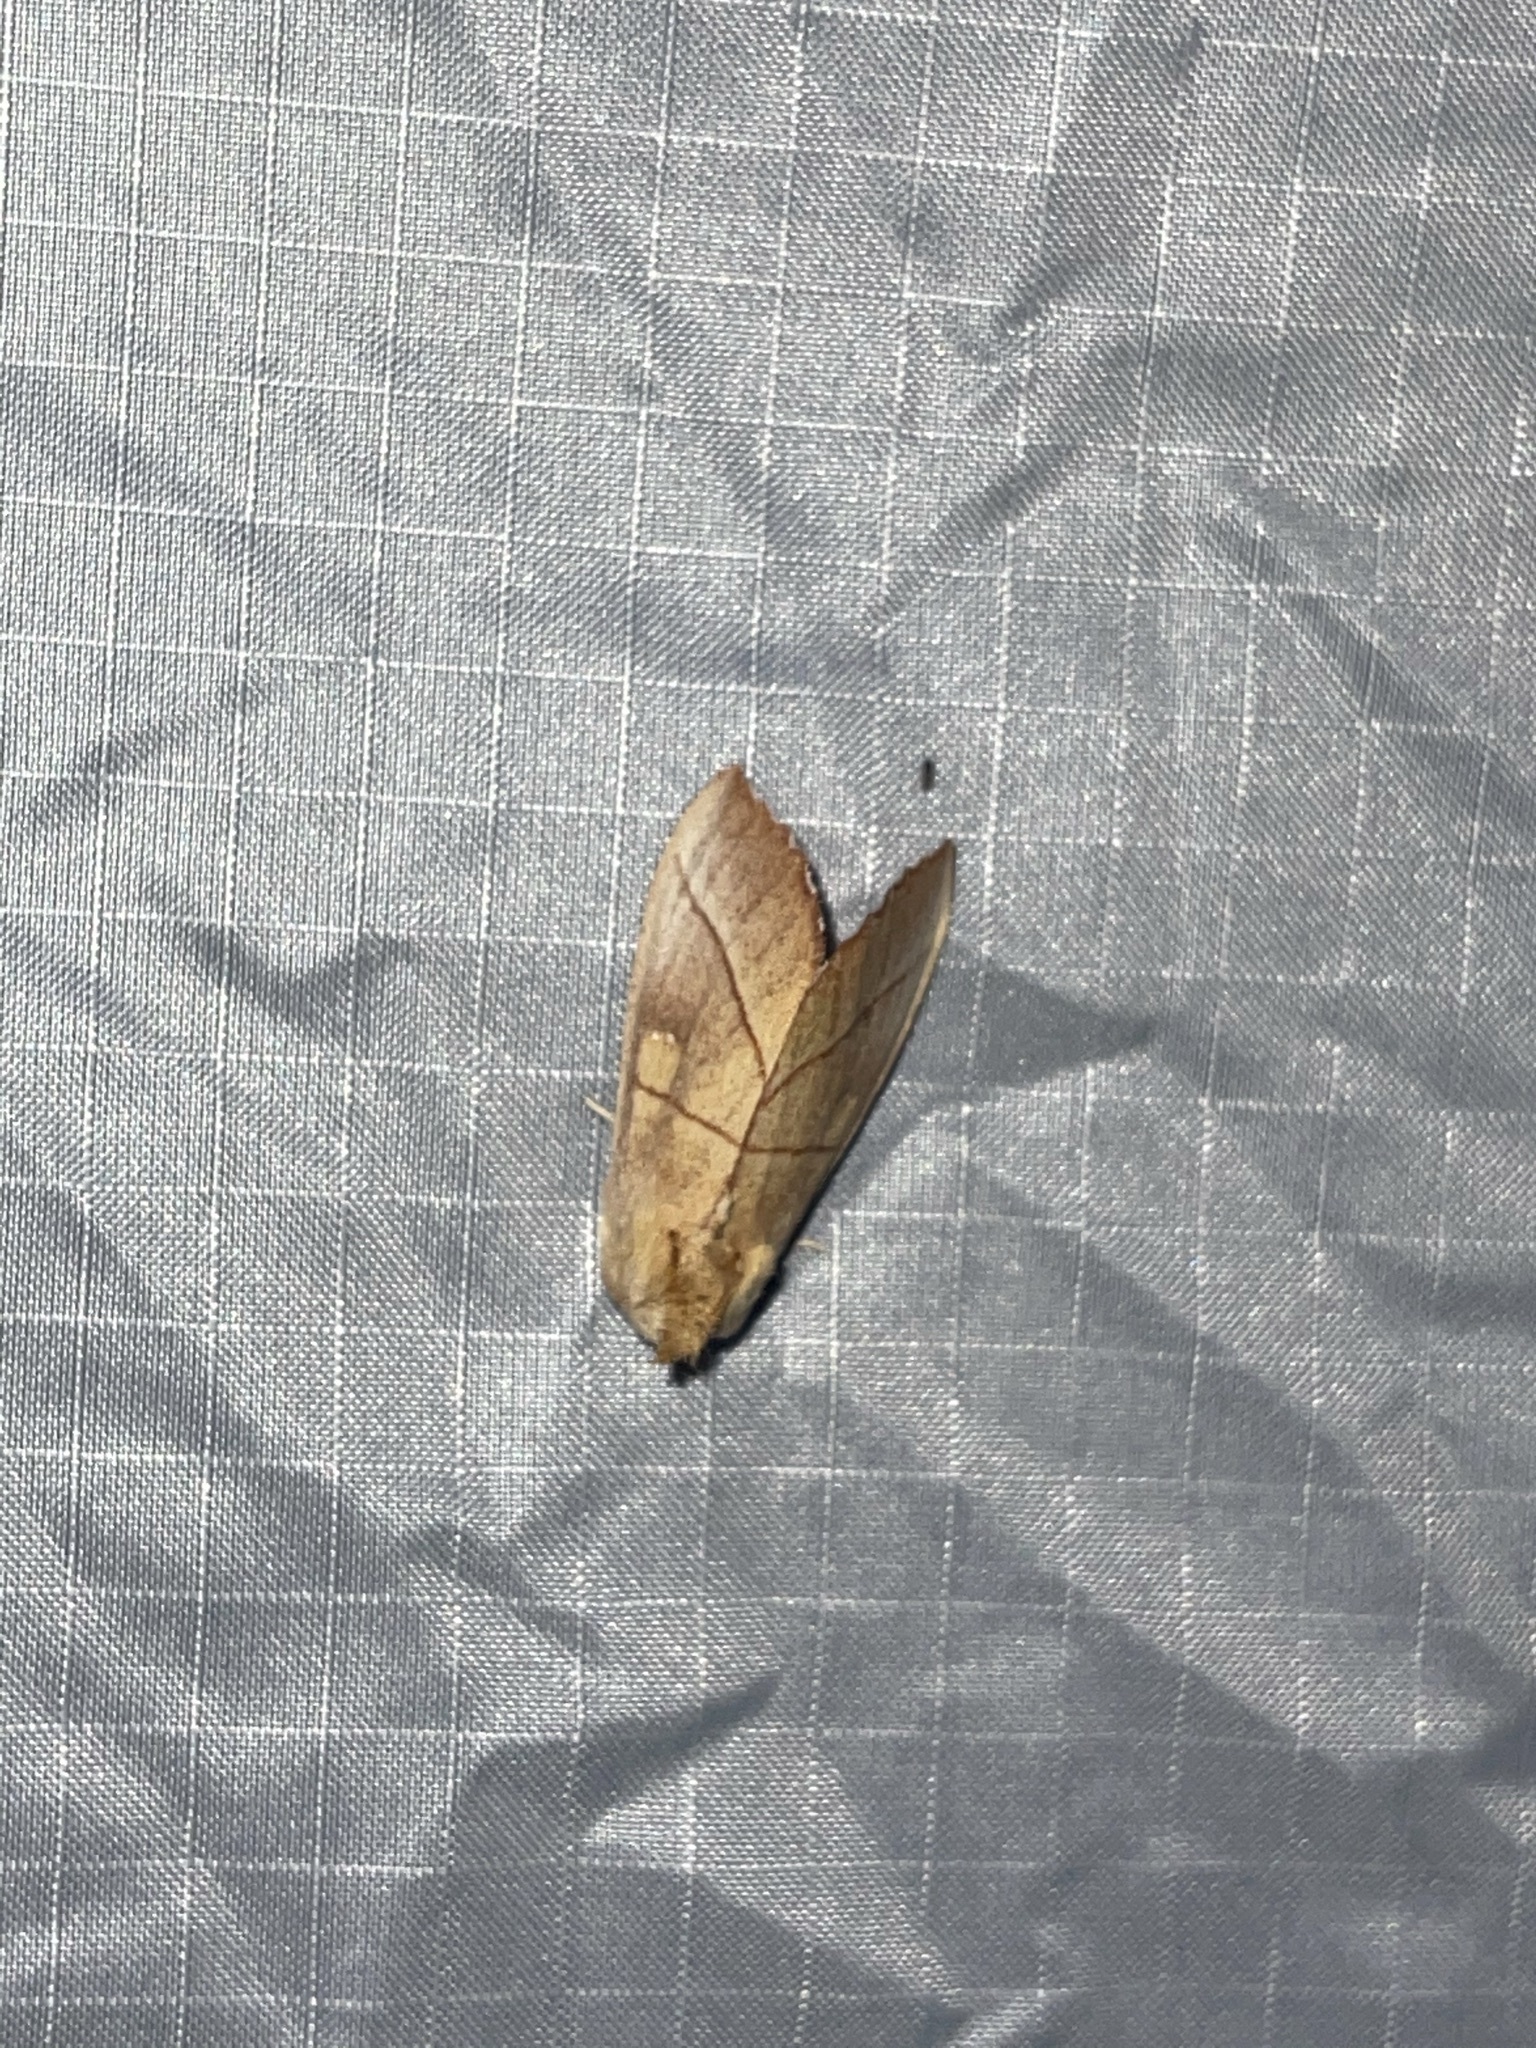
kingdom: Animalia
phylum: Arthropoda
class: Insecta
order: Lepidoptera
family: Notodontidae
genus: Nadata
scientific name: Nadata gibbosa
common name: White-dotted prominent
